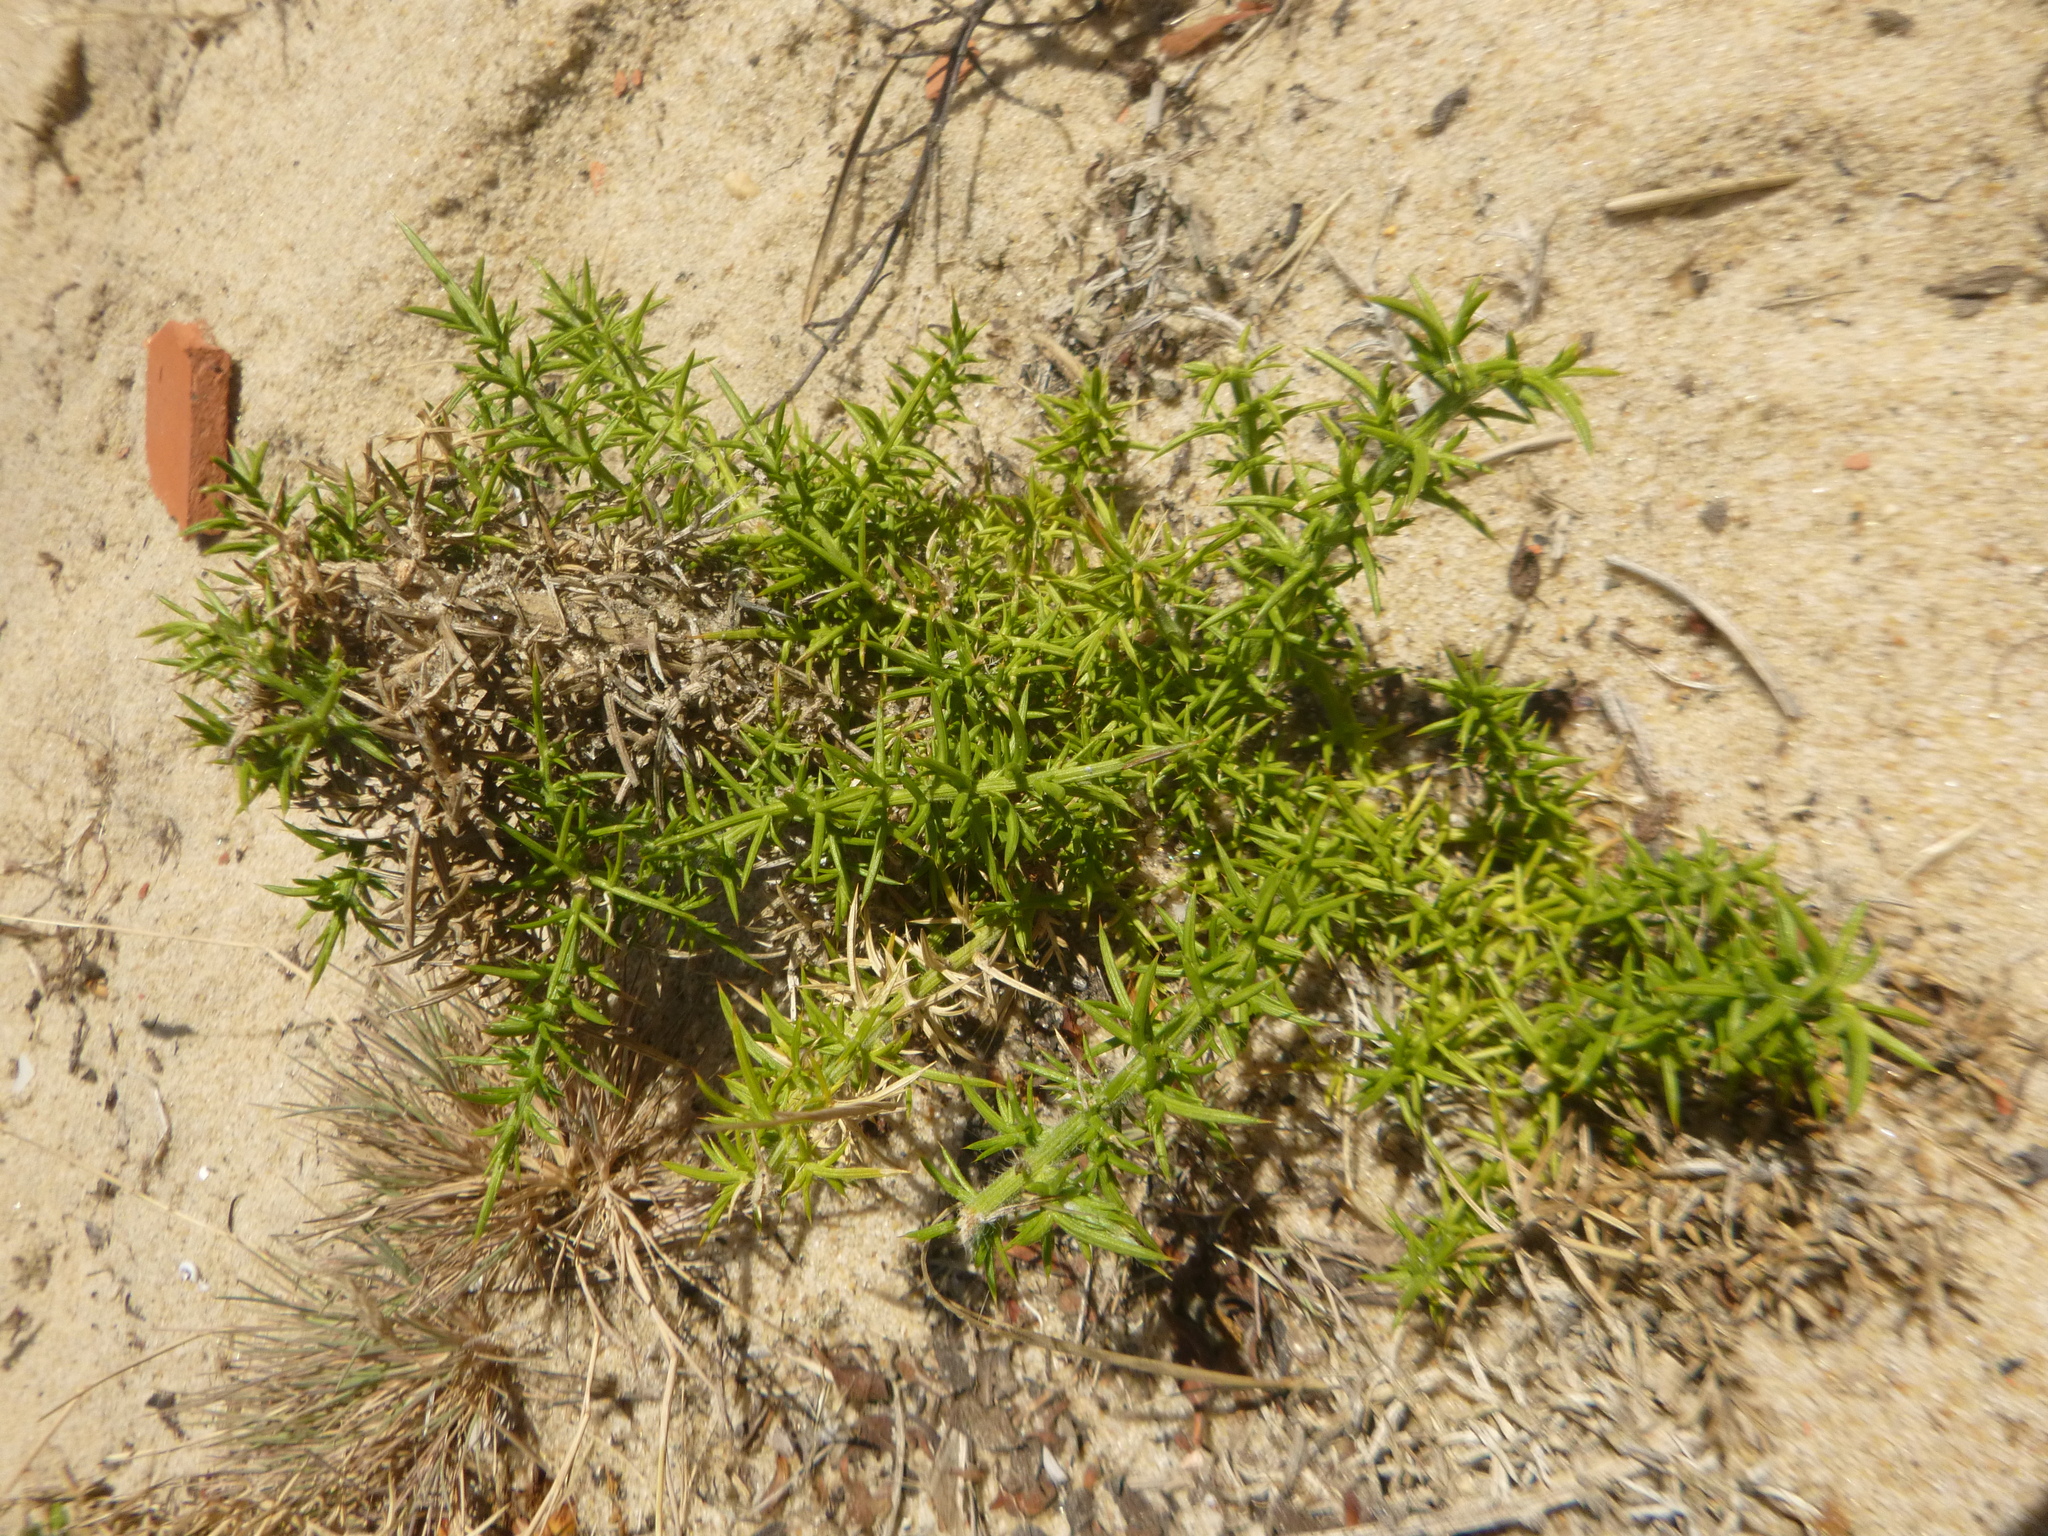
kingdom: Plantae
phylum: Tracheophyta
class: Magnoliopsida
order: Fabales
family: Fabaceae
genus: Ulex
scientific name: Ulex europaeus
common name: Common gorse
